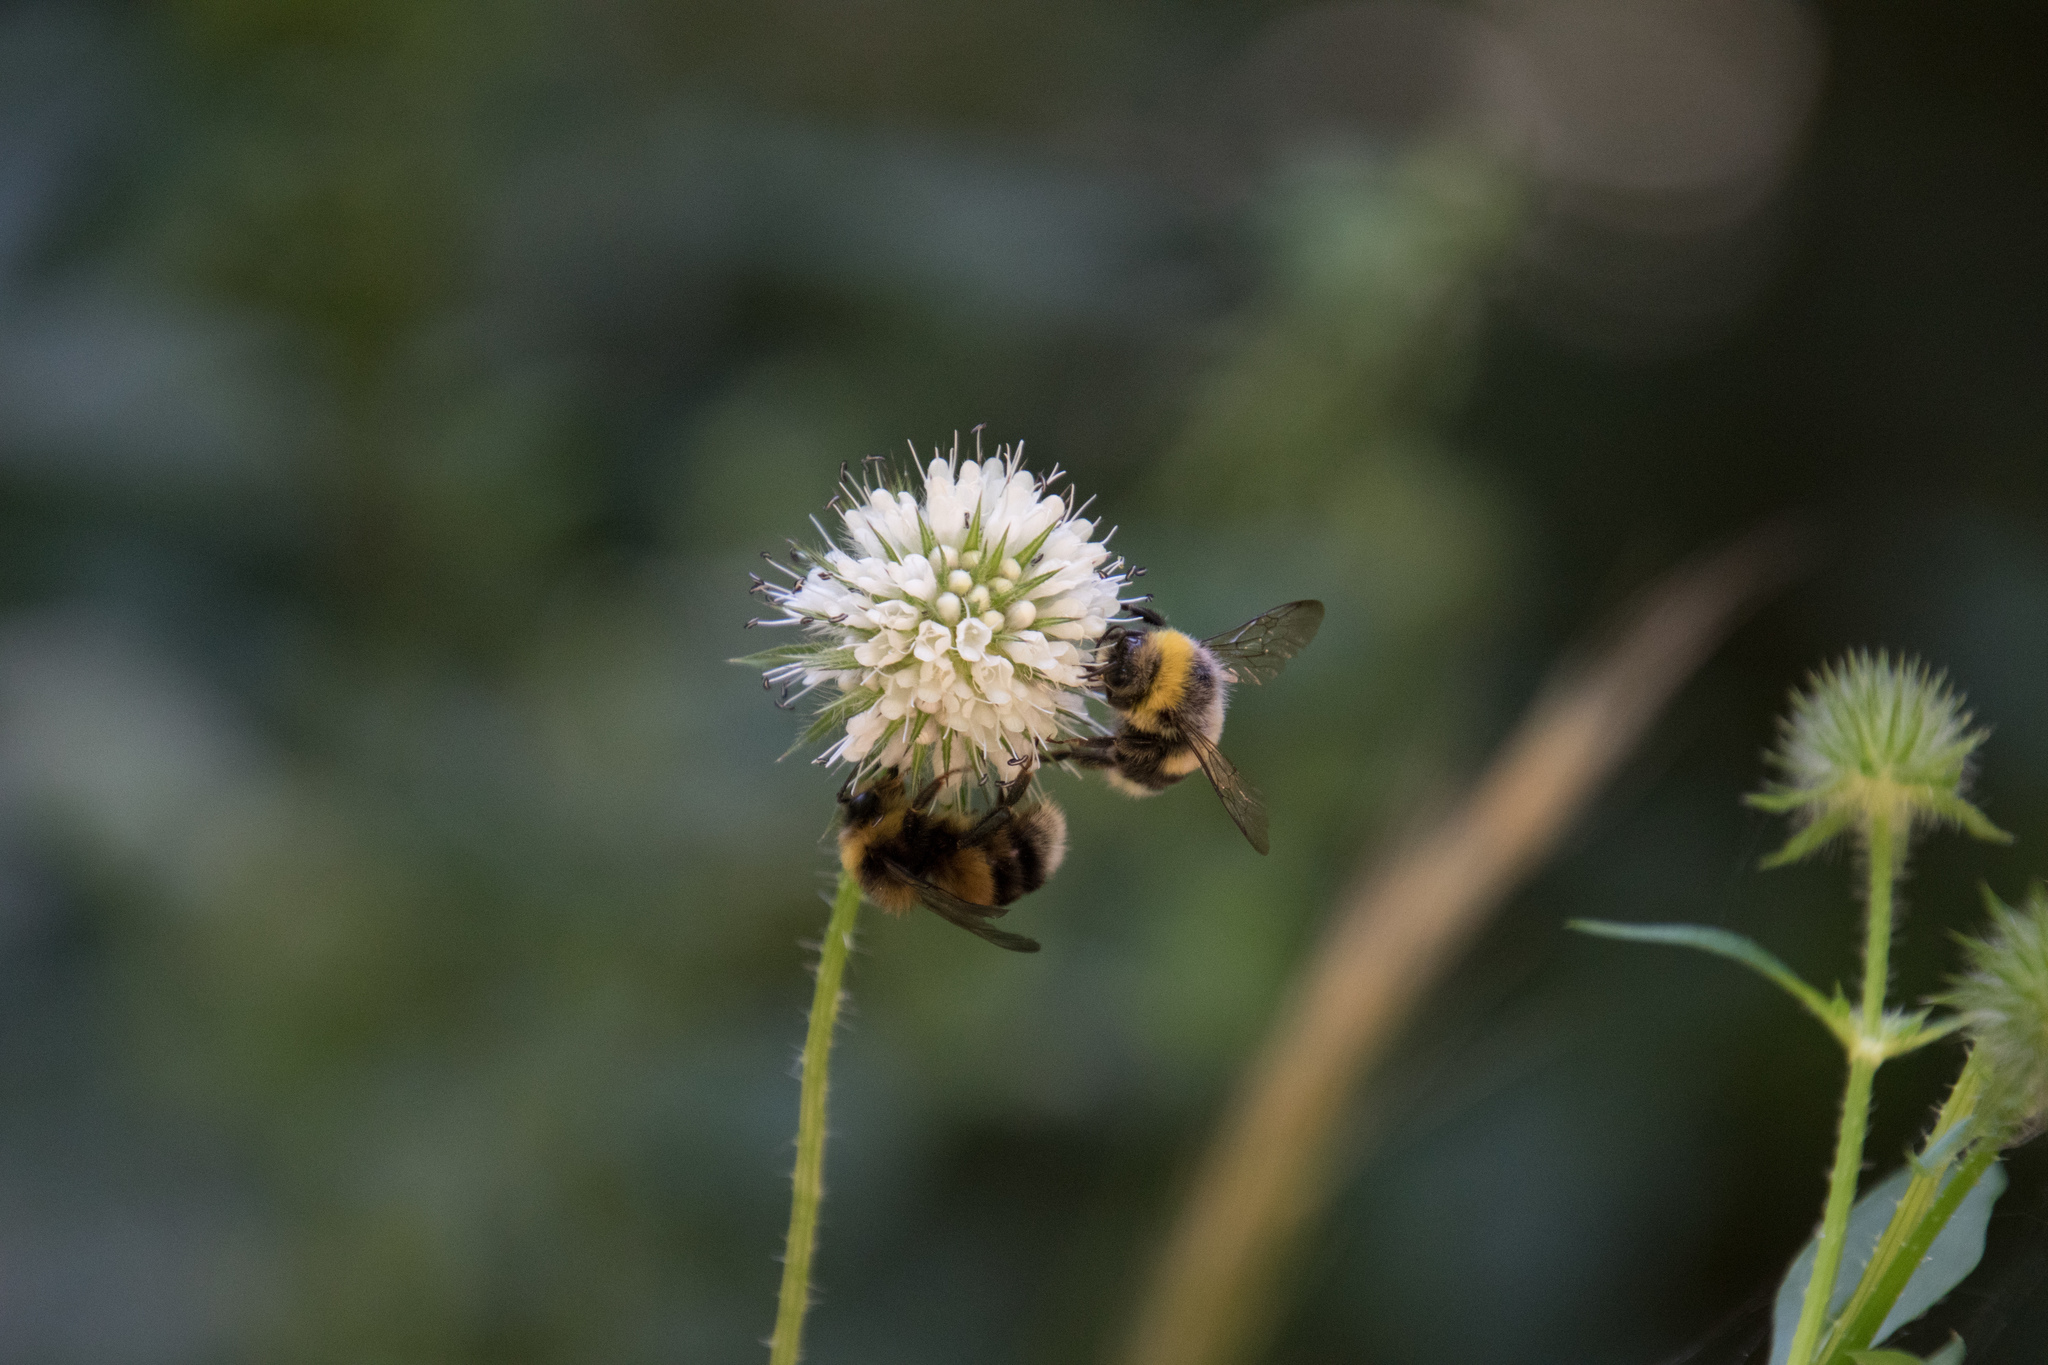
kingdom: Animalia
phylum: Arthropoda
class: Insecta
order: Hymenoptera
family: Apidae
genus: Bombus
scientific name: Bombus lucorum
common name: White-tailed bumblebee
